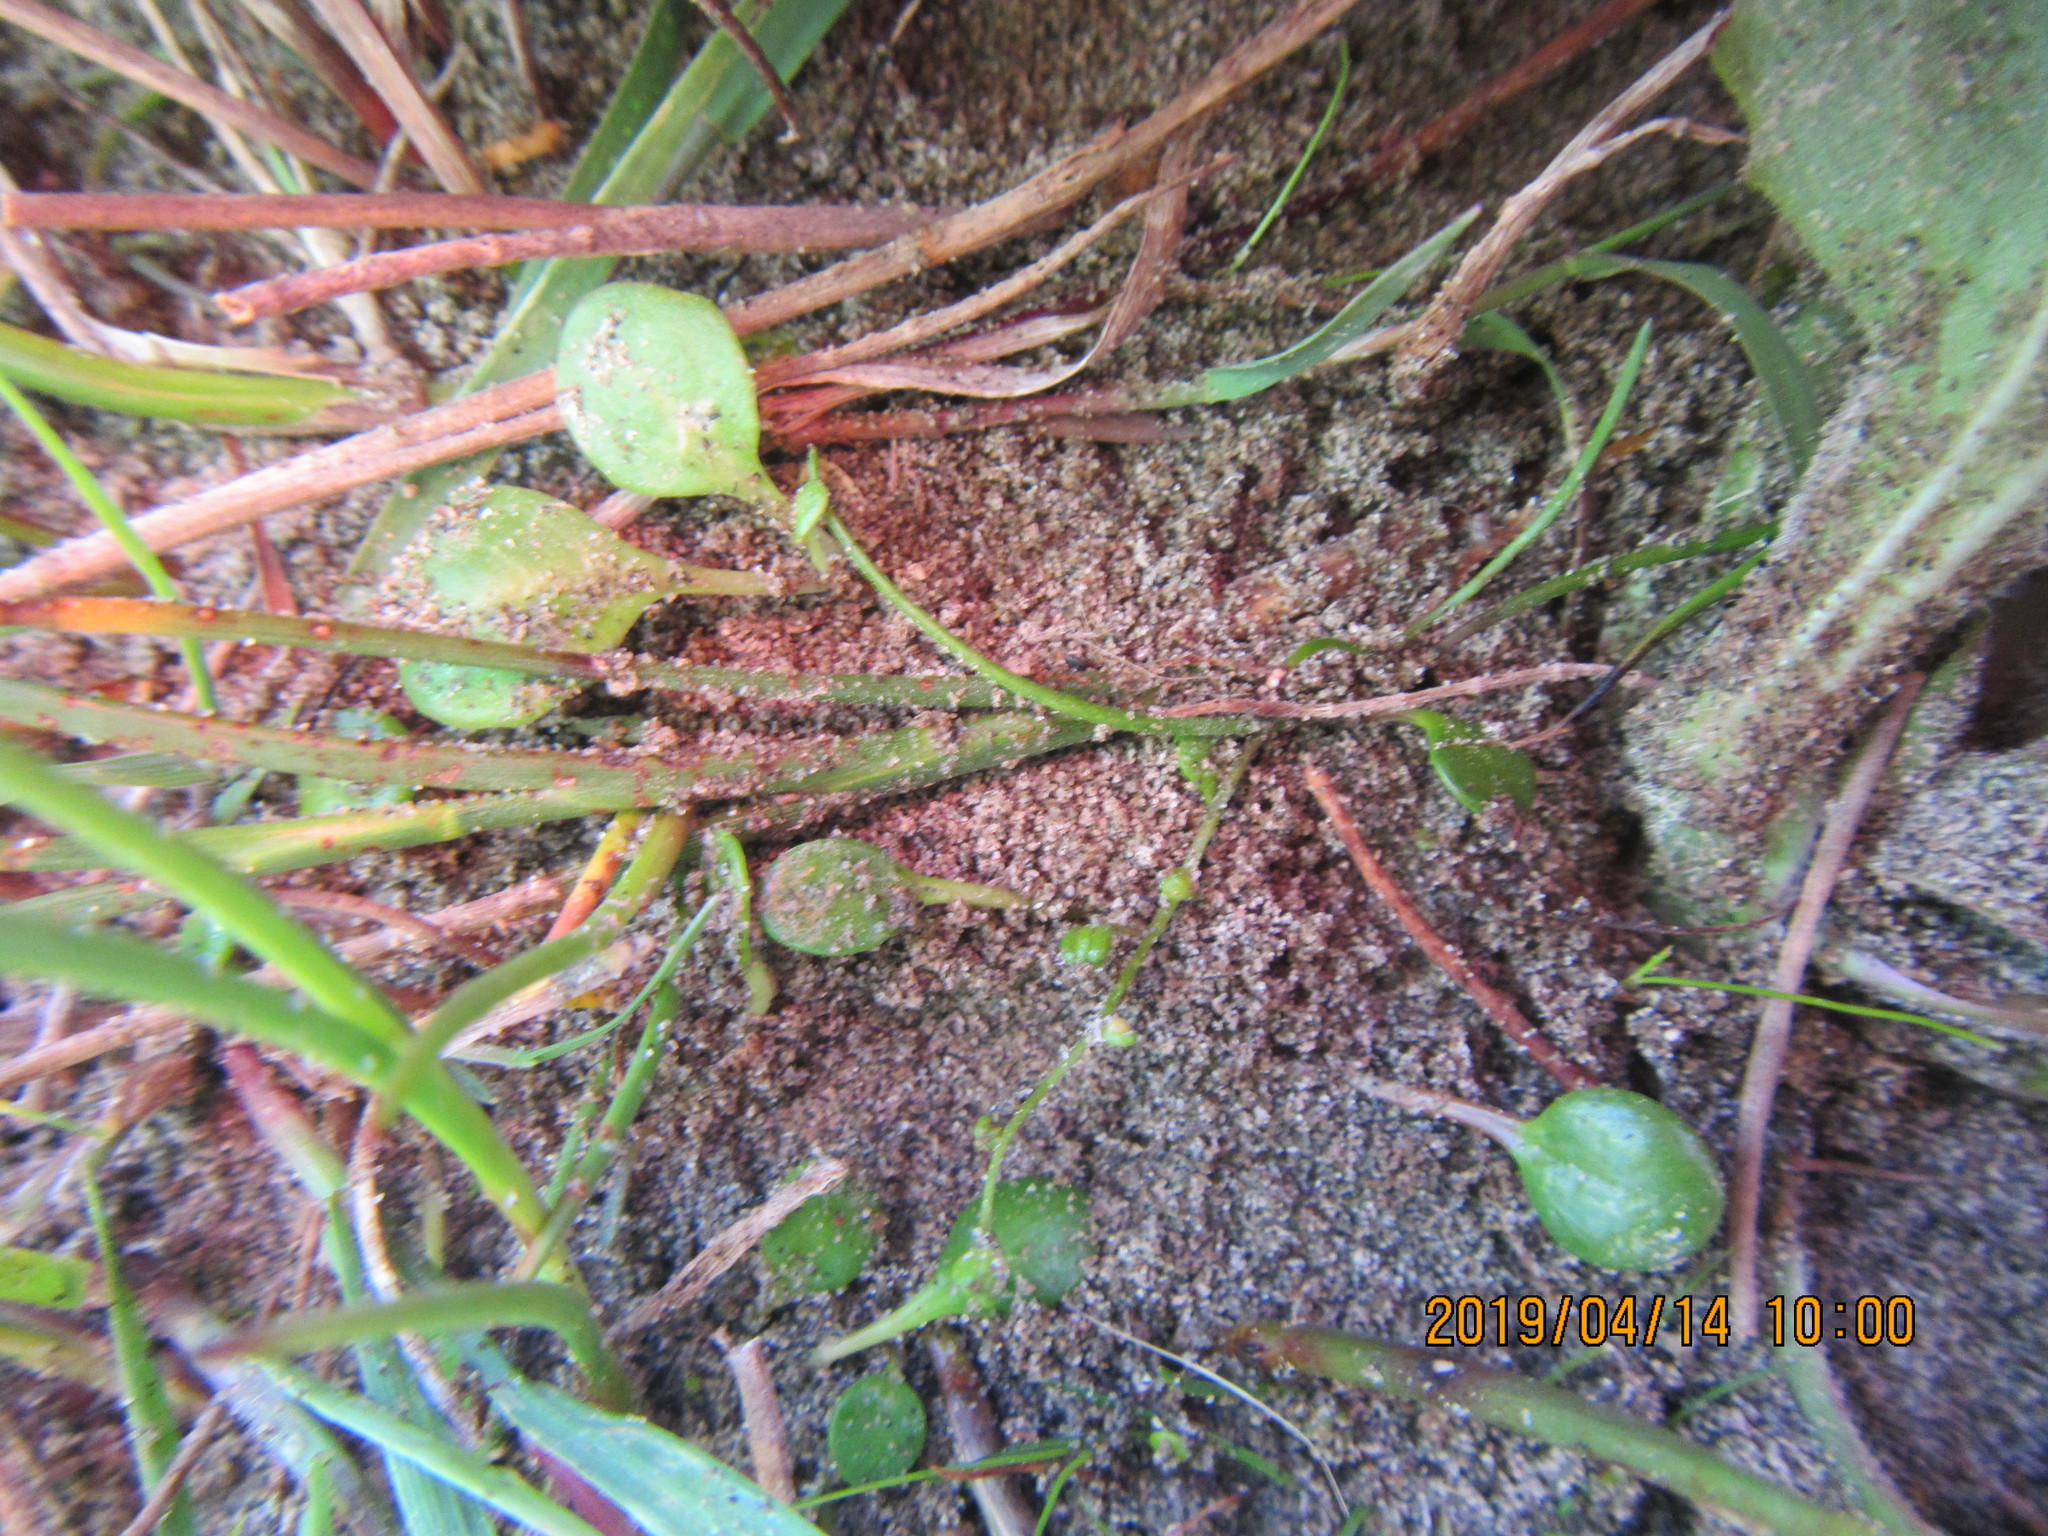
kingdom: Plantae
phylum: Tracheophyta
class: Liliopsida
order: Alismatales
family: Juncaginaceae
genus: Triglochin
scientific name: Triglochin striata
